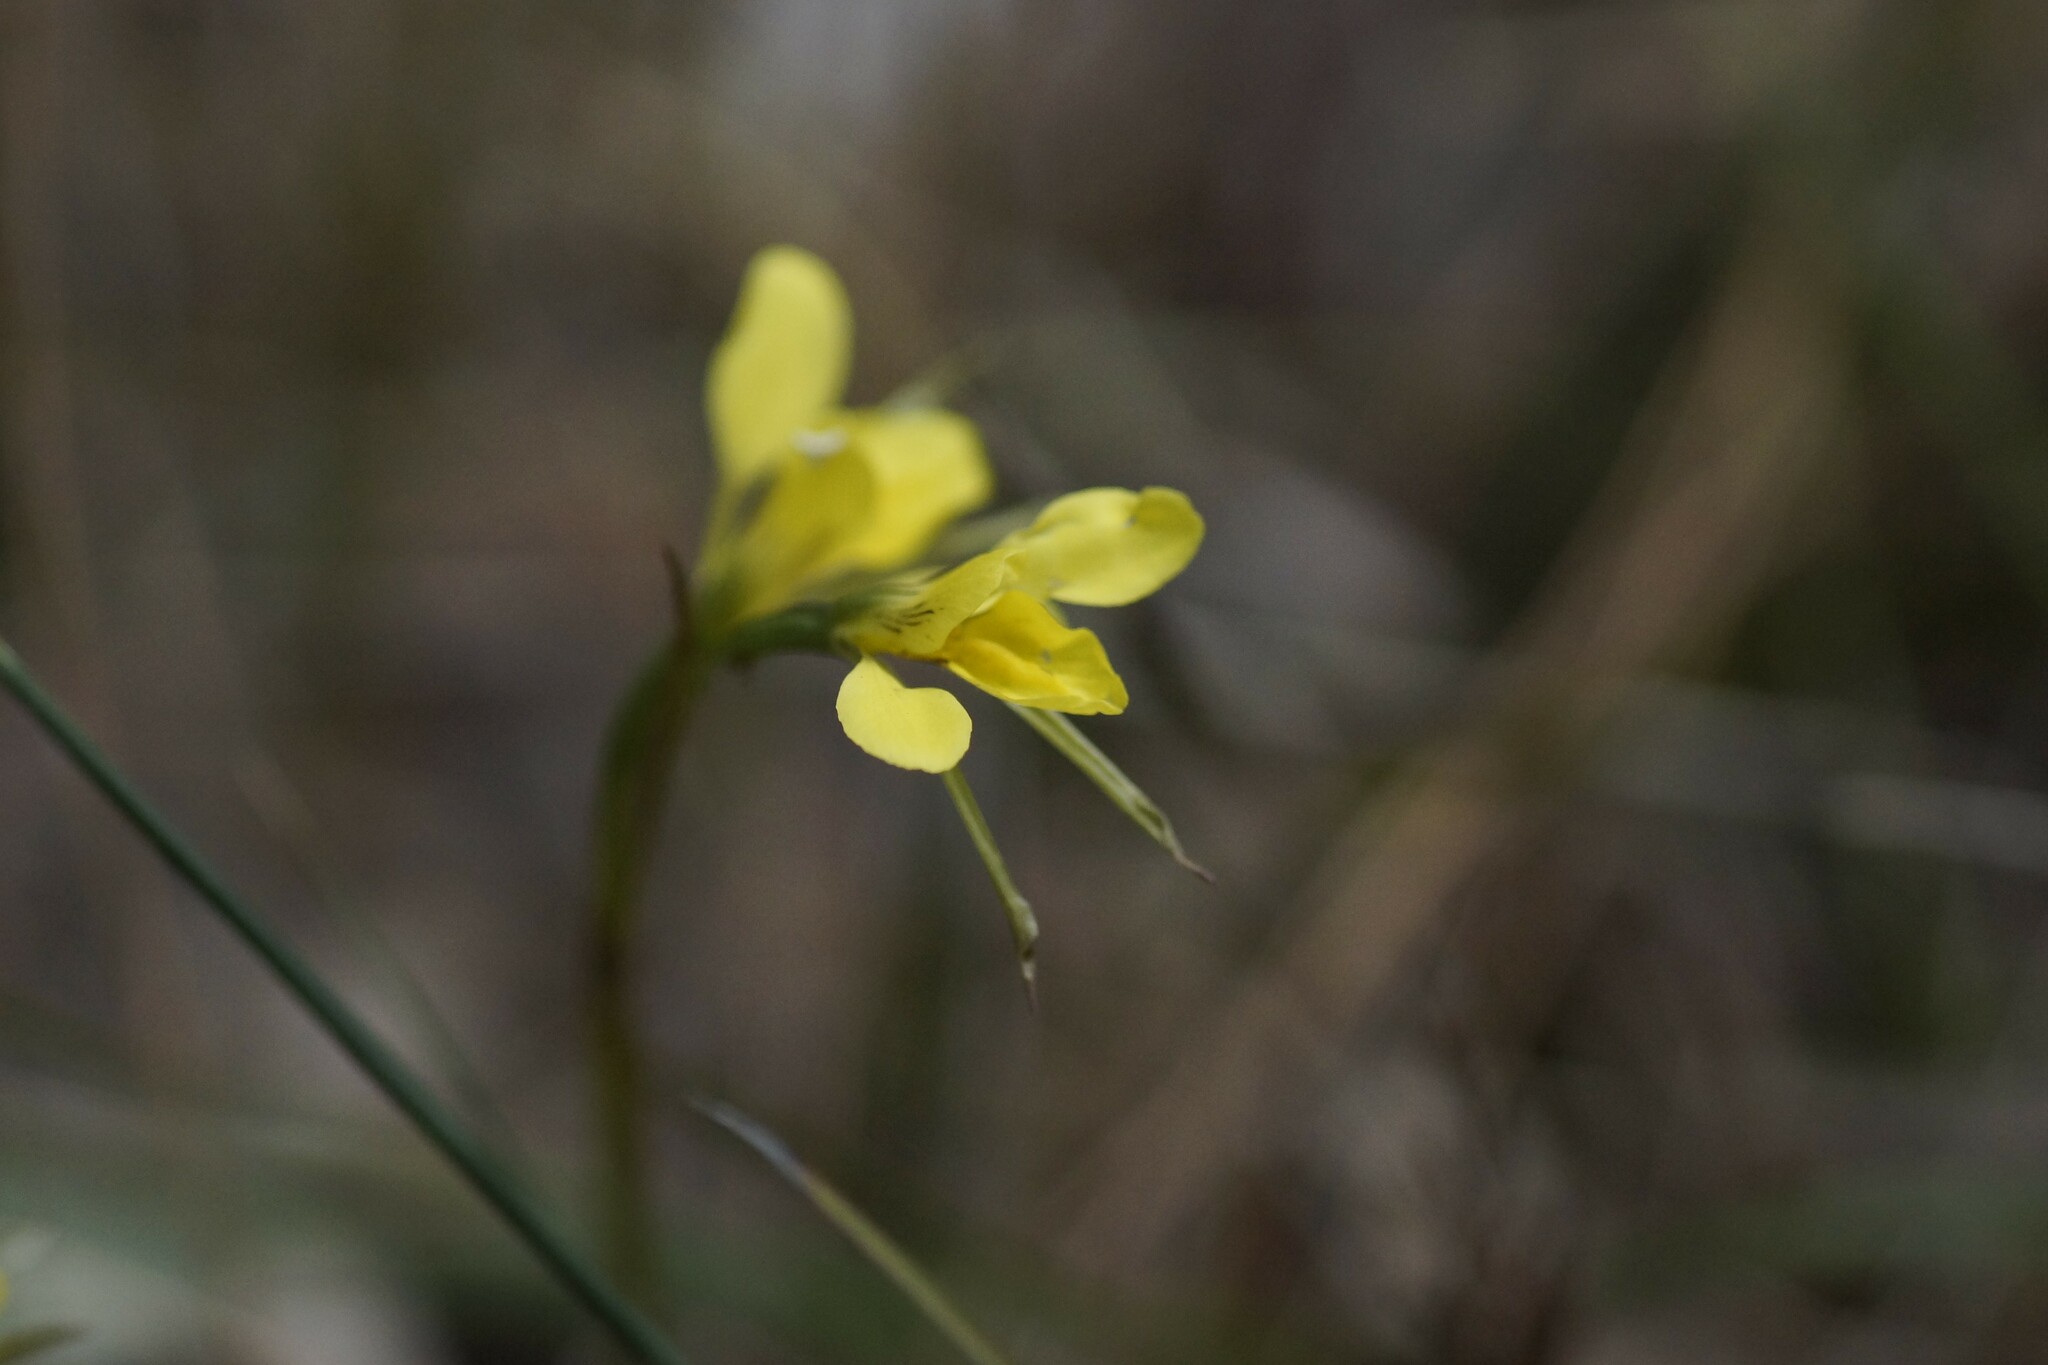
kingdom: Plantae
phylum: Tracheophyta
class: Liliopsida
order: Asparagales
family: Orchidaceae
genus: Diuris
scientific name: Diuris chryseopsis
